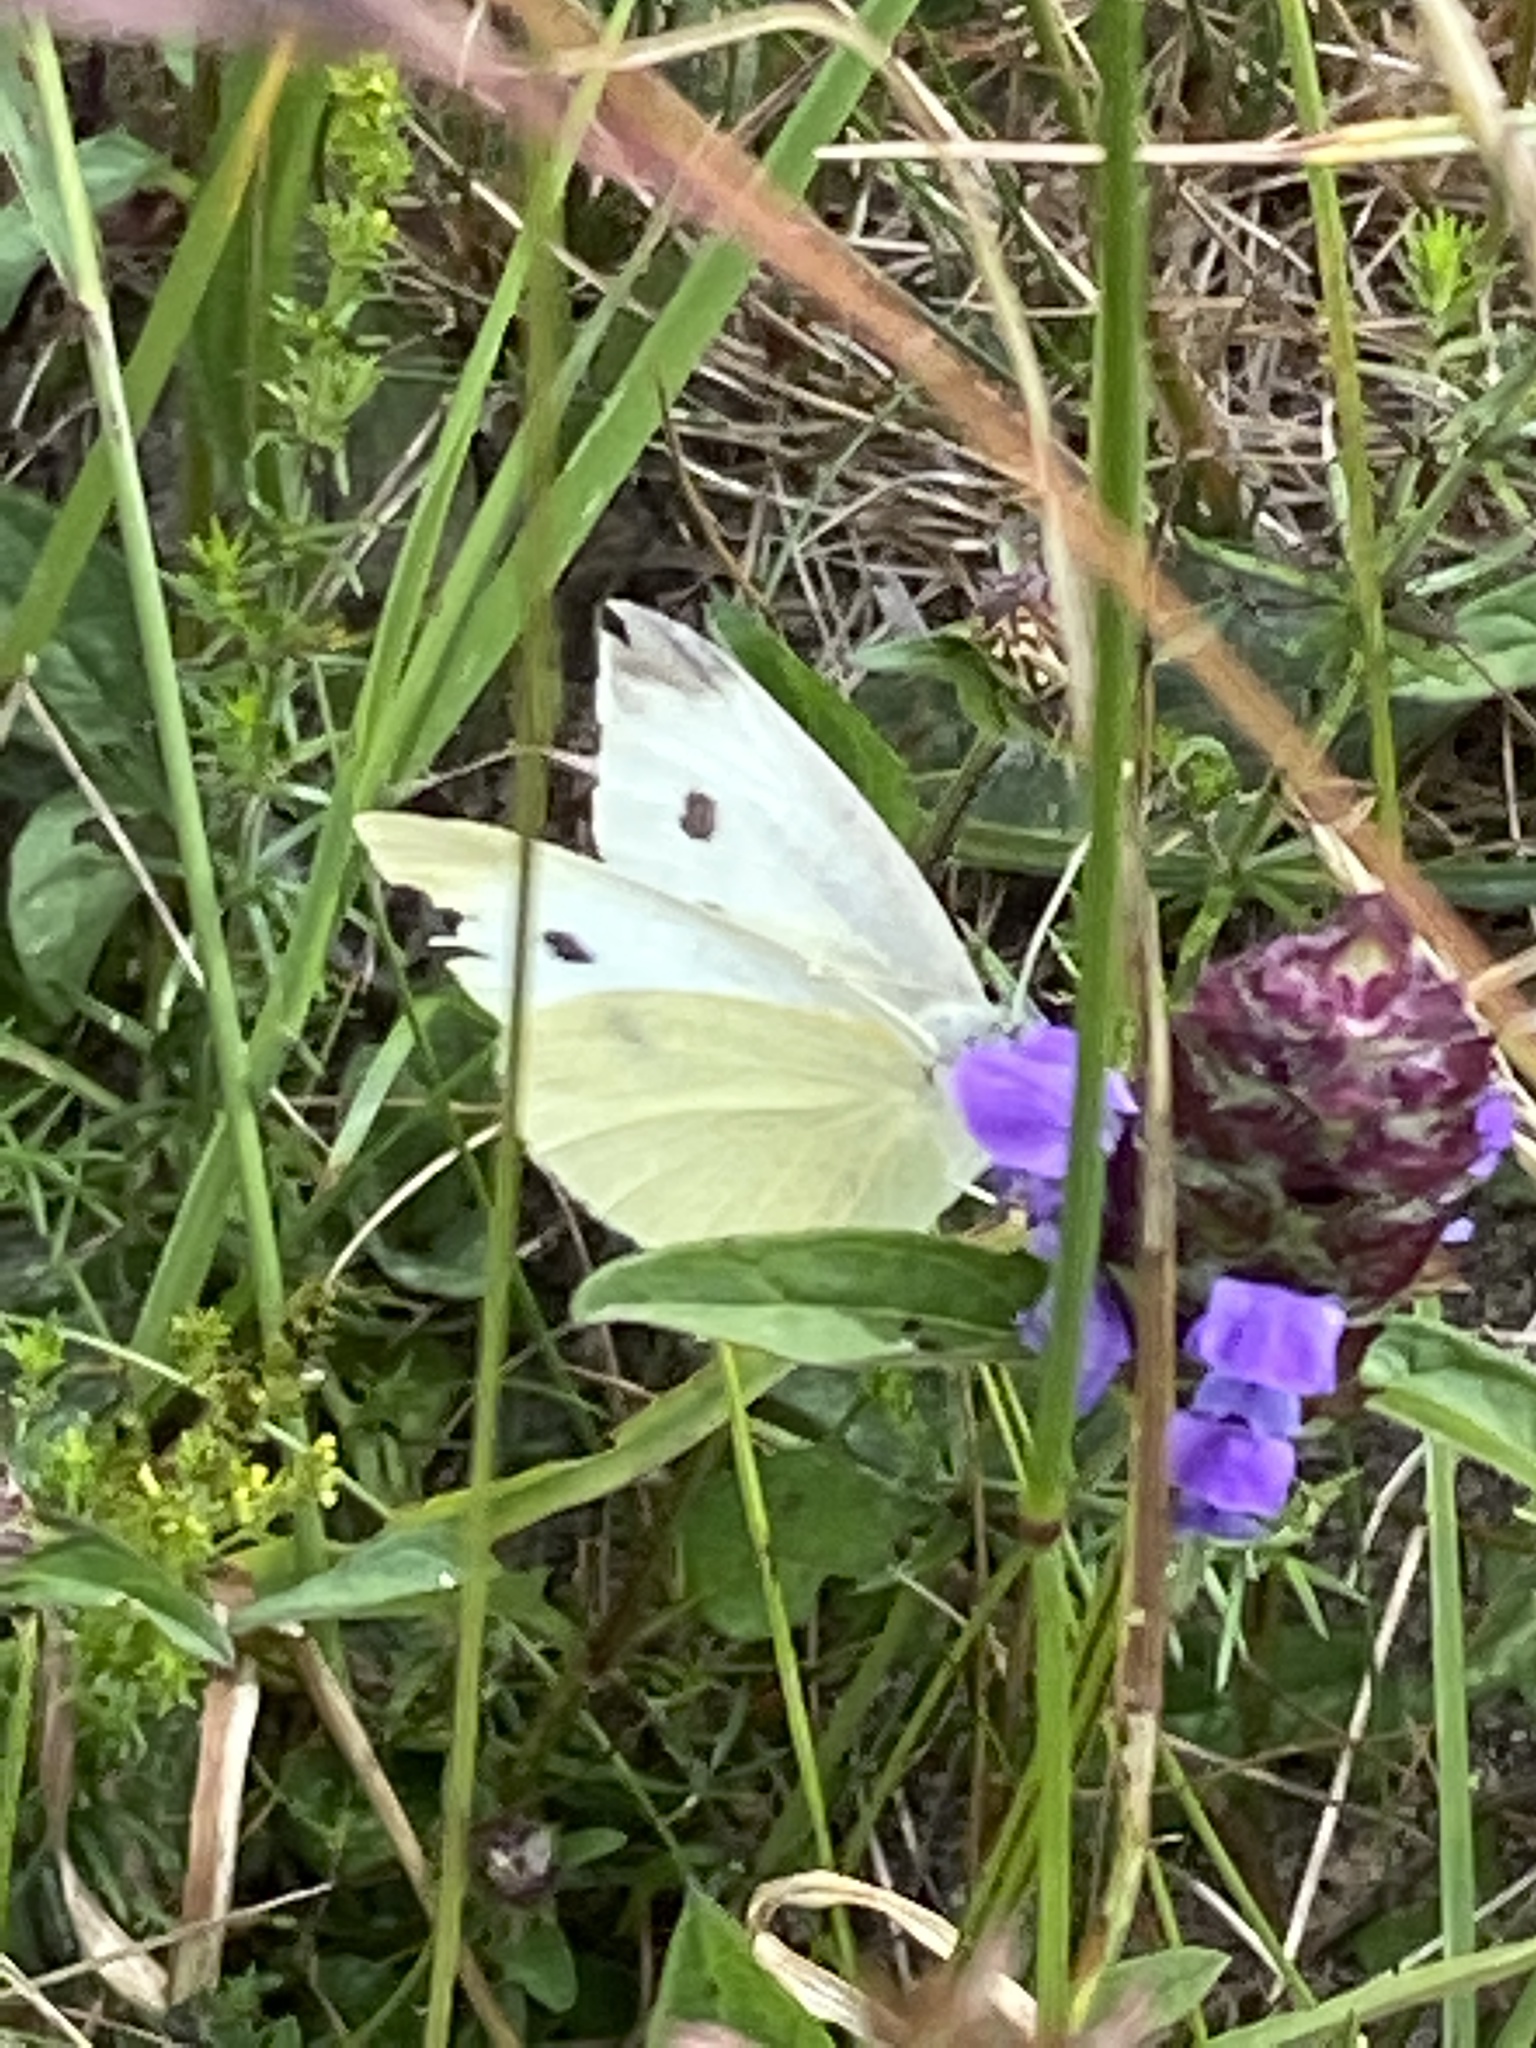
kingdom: Animalia
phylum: Arthropoda
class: Insecta
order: Lepidoptera
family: Pieridae
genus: Pieris
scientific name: Pieris rapae
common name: Small white
